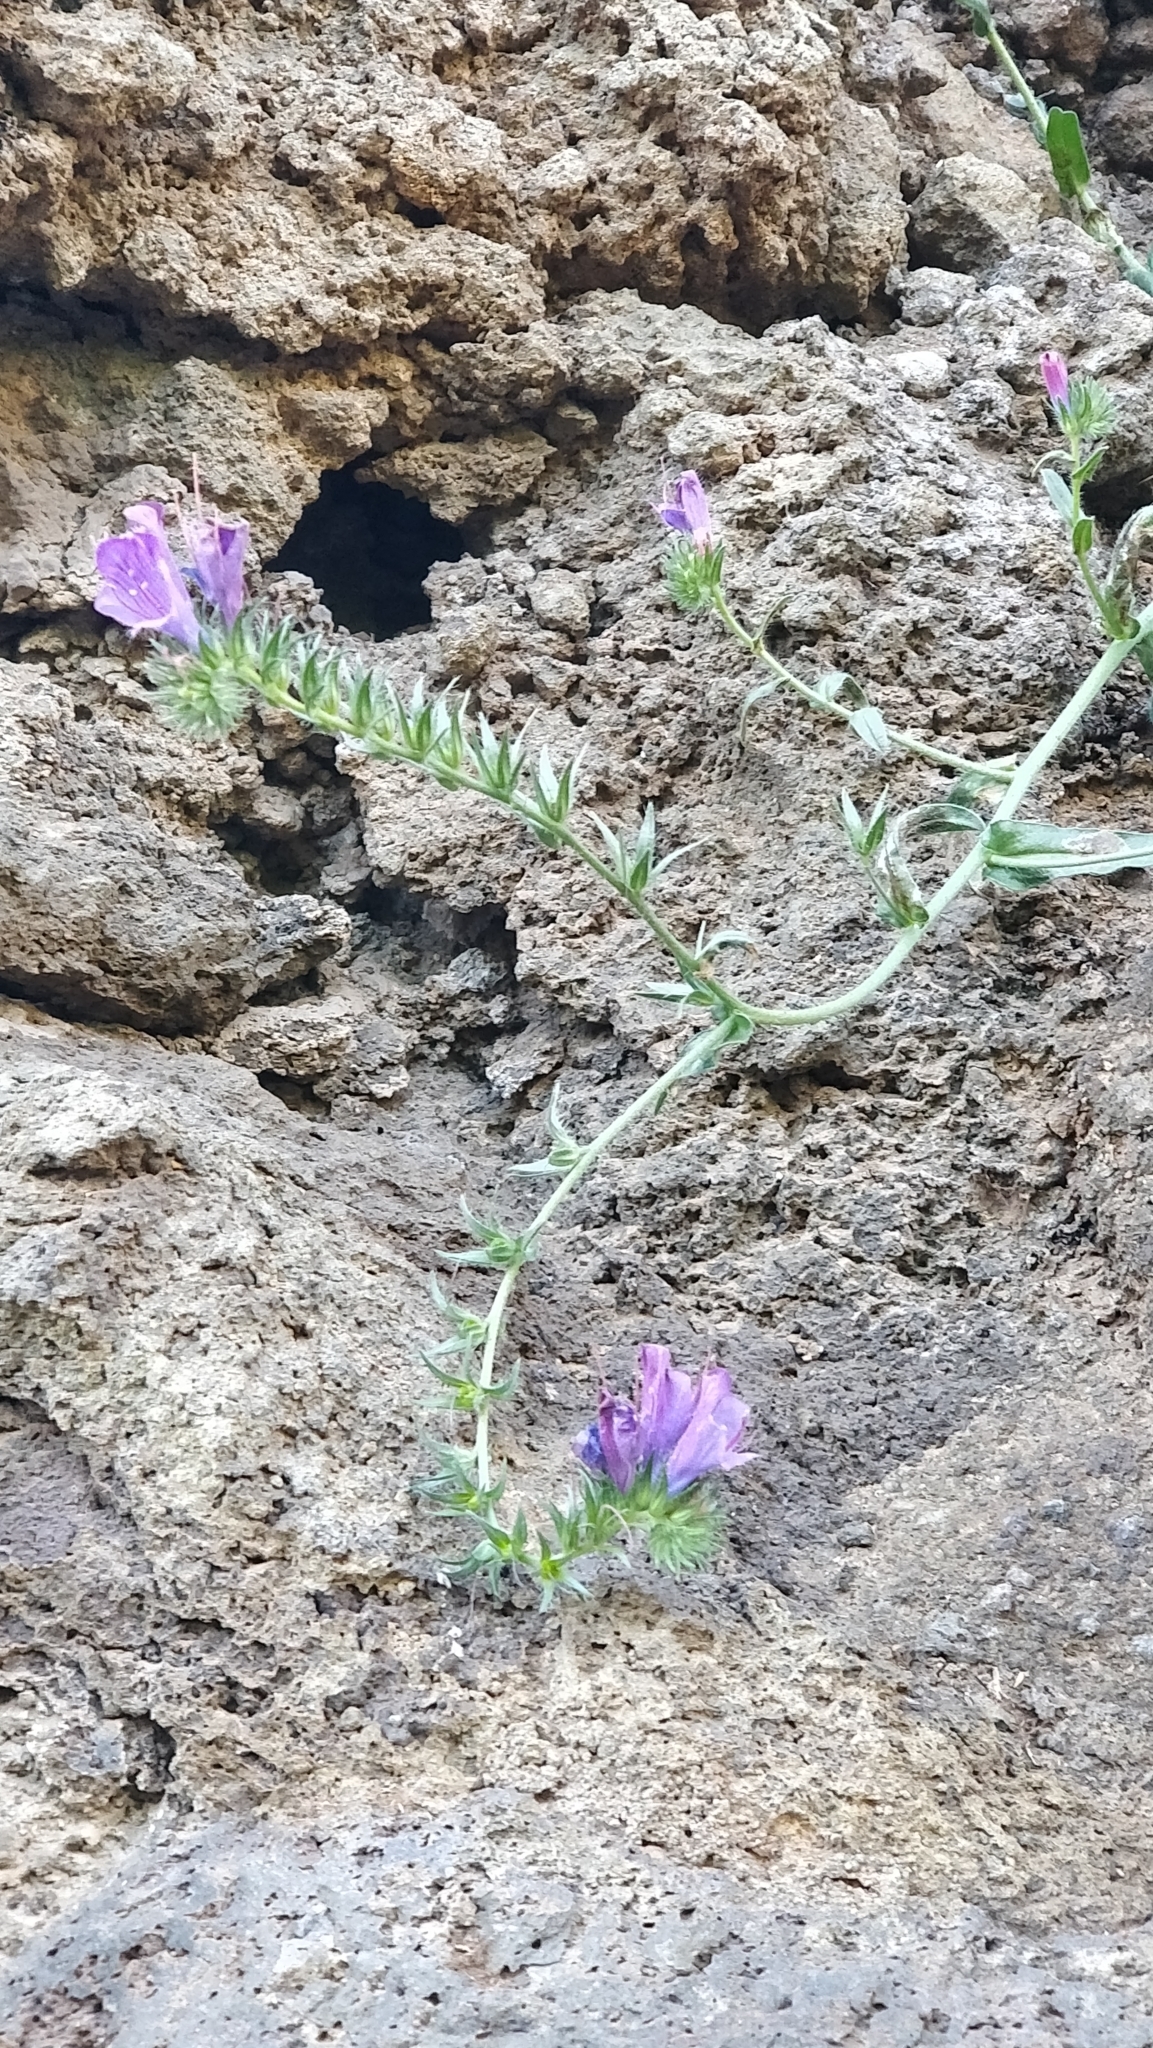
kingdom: Plantae
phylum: Tracheophyta
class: Magnoliopsida
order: Boraginales
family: Boraginaceae
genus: Echium
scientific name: Echium plantagineum
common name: Purple viper's-bugloss
